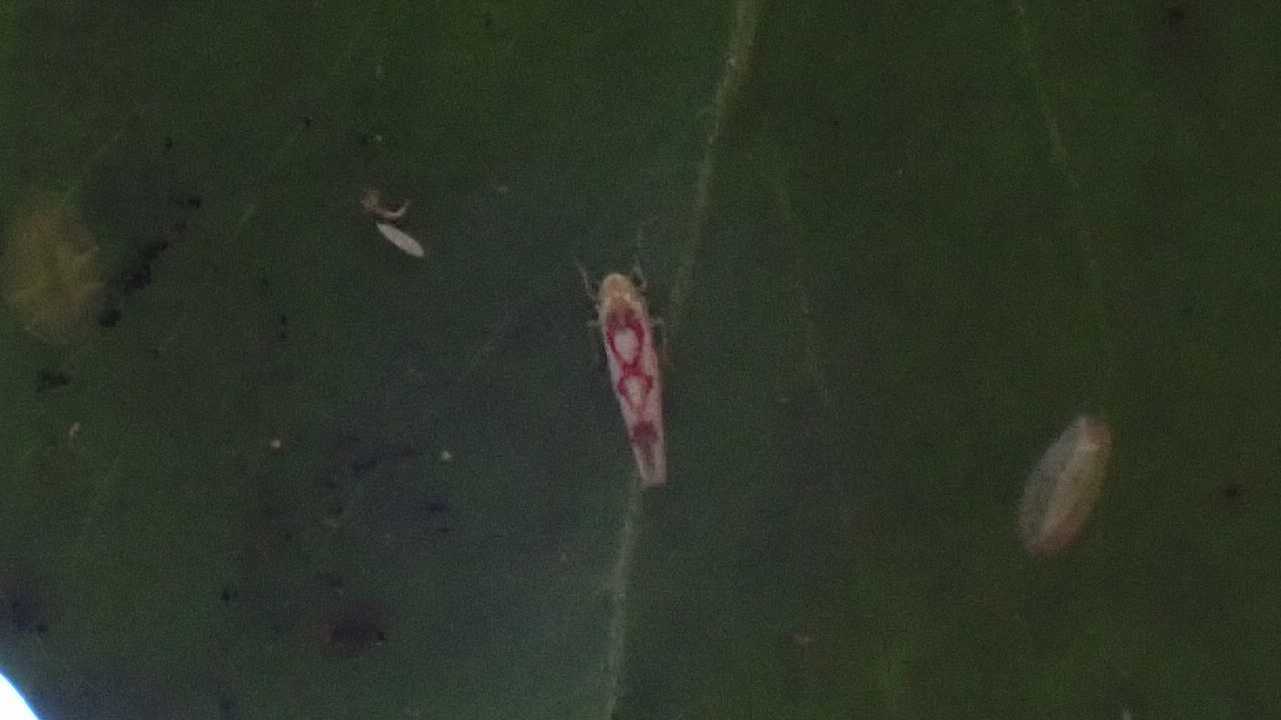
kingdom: Animalia
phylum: Arthropoda
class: Insecta
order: Hemiptera
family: Cicadellidae
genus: Zygina
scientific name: Zygina flammigera
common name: Leafhopper
